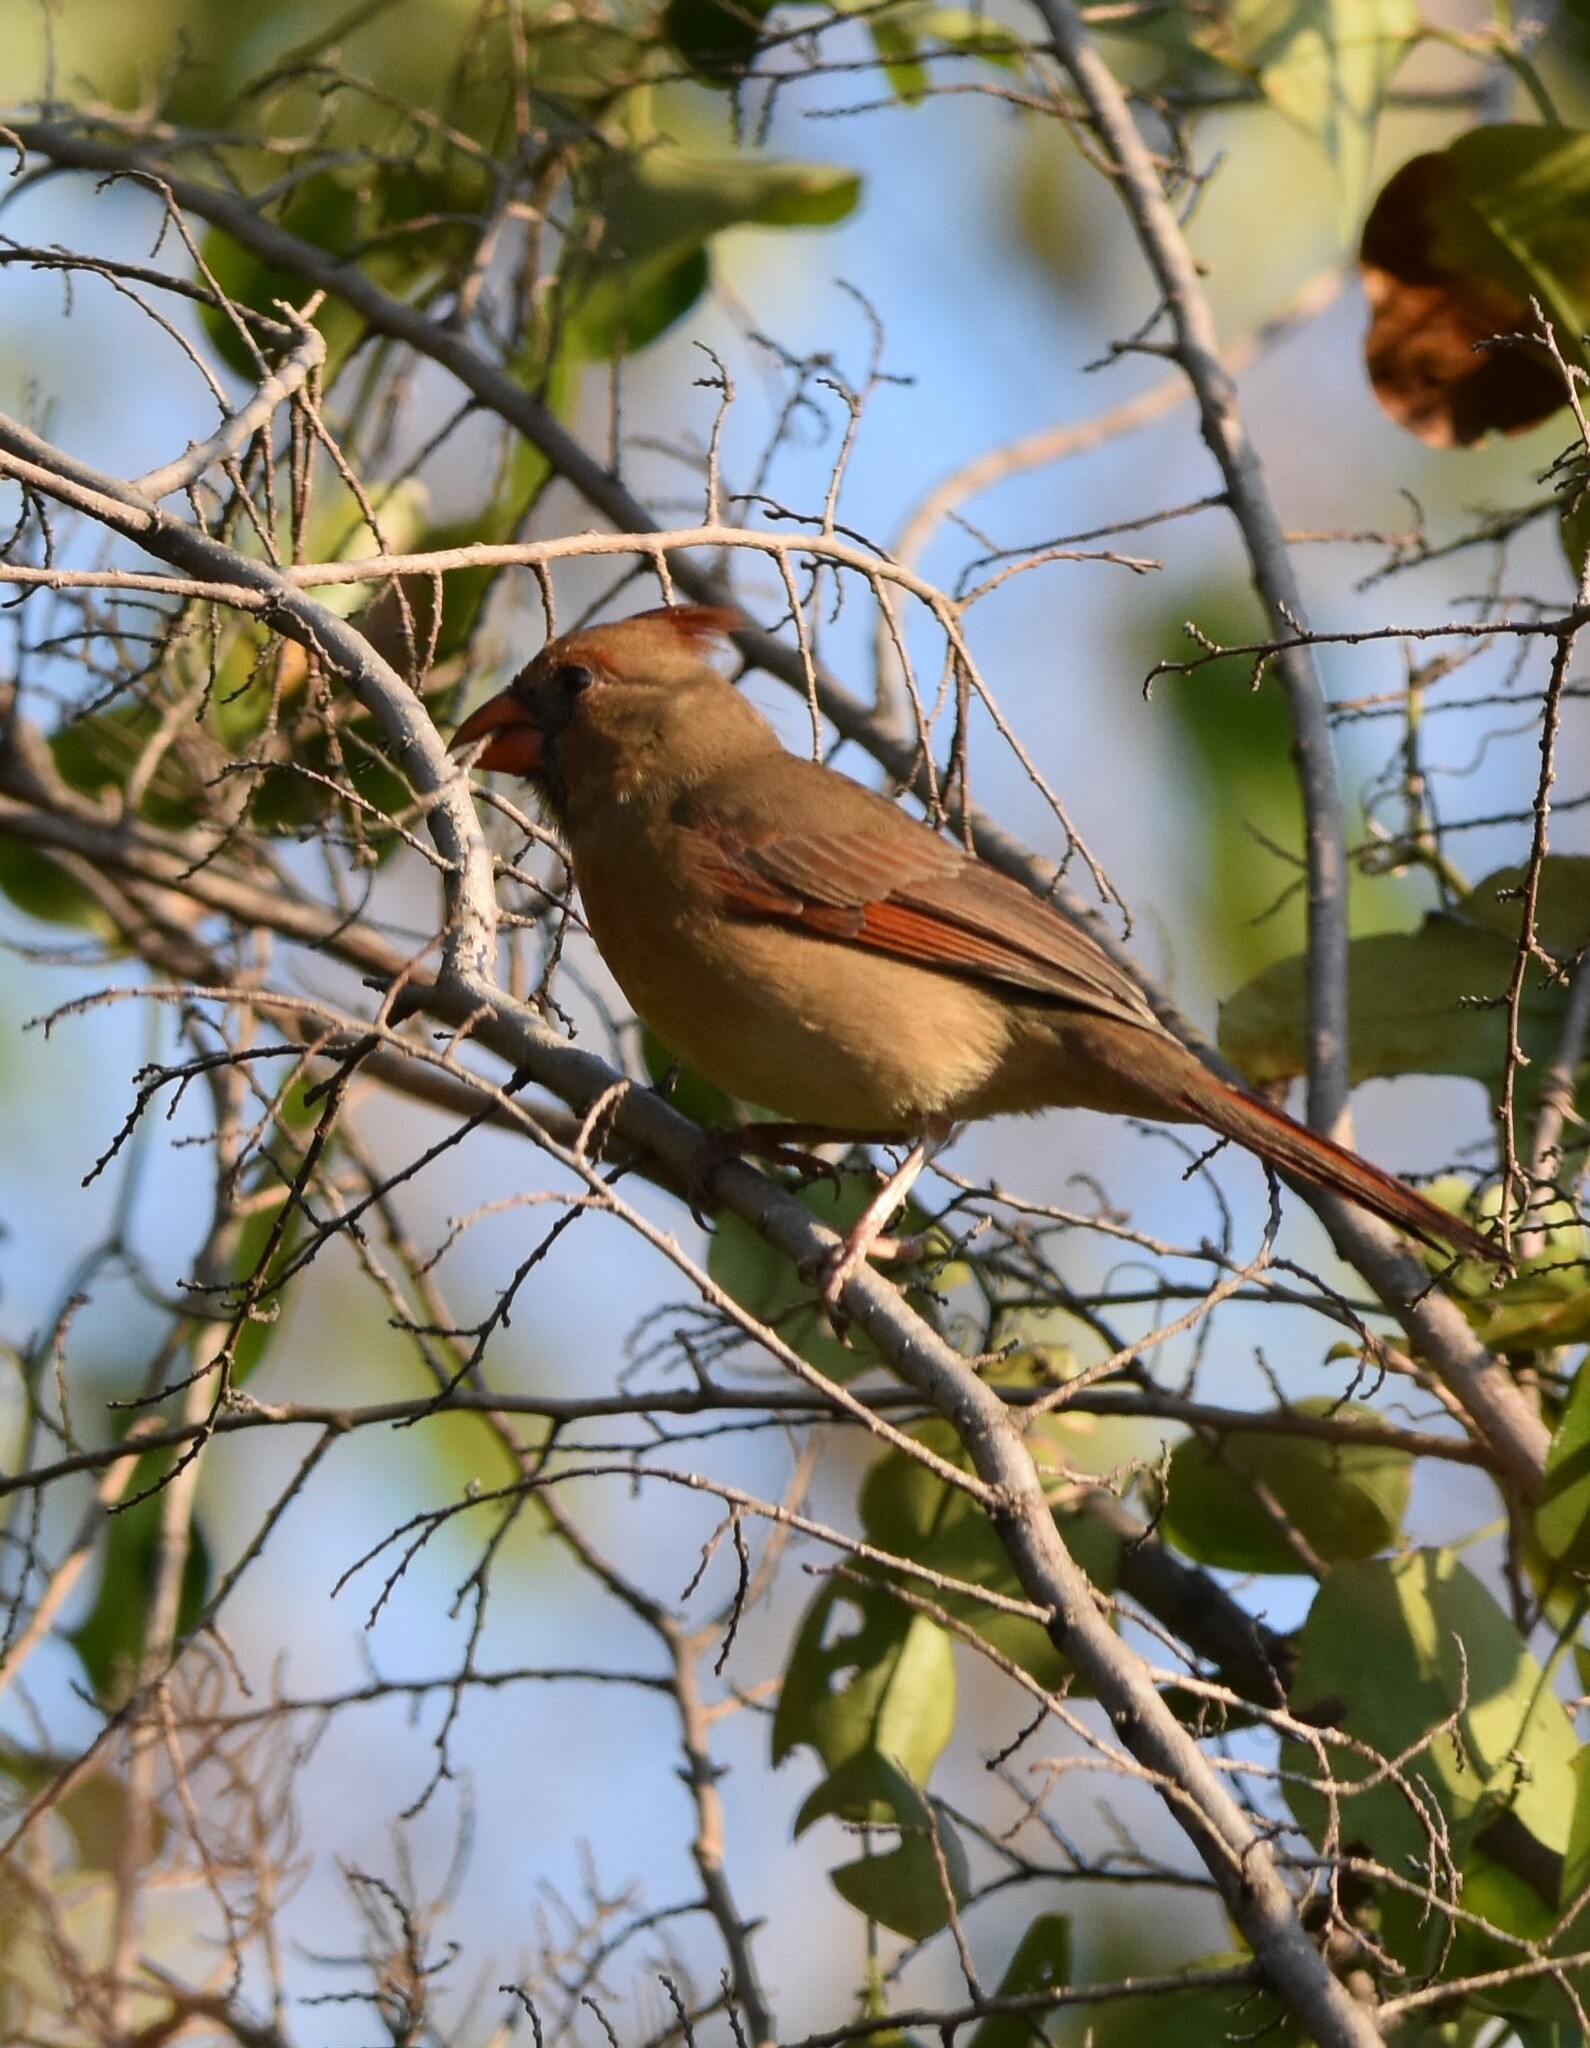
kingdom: Animalia
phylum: Chordata
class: Aves
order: Passeriformes
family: Cardinalidae
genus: Cardinalis
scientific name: Cardinalis cardinalis
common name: Northern cardinal
